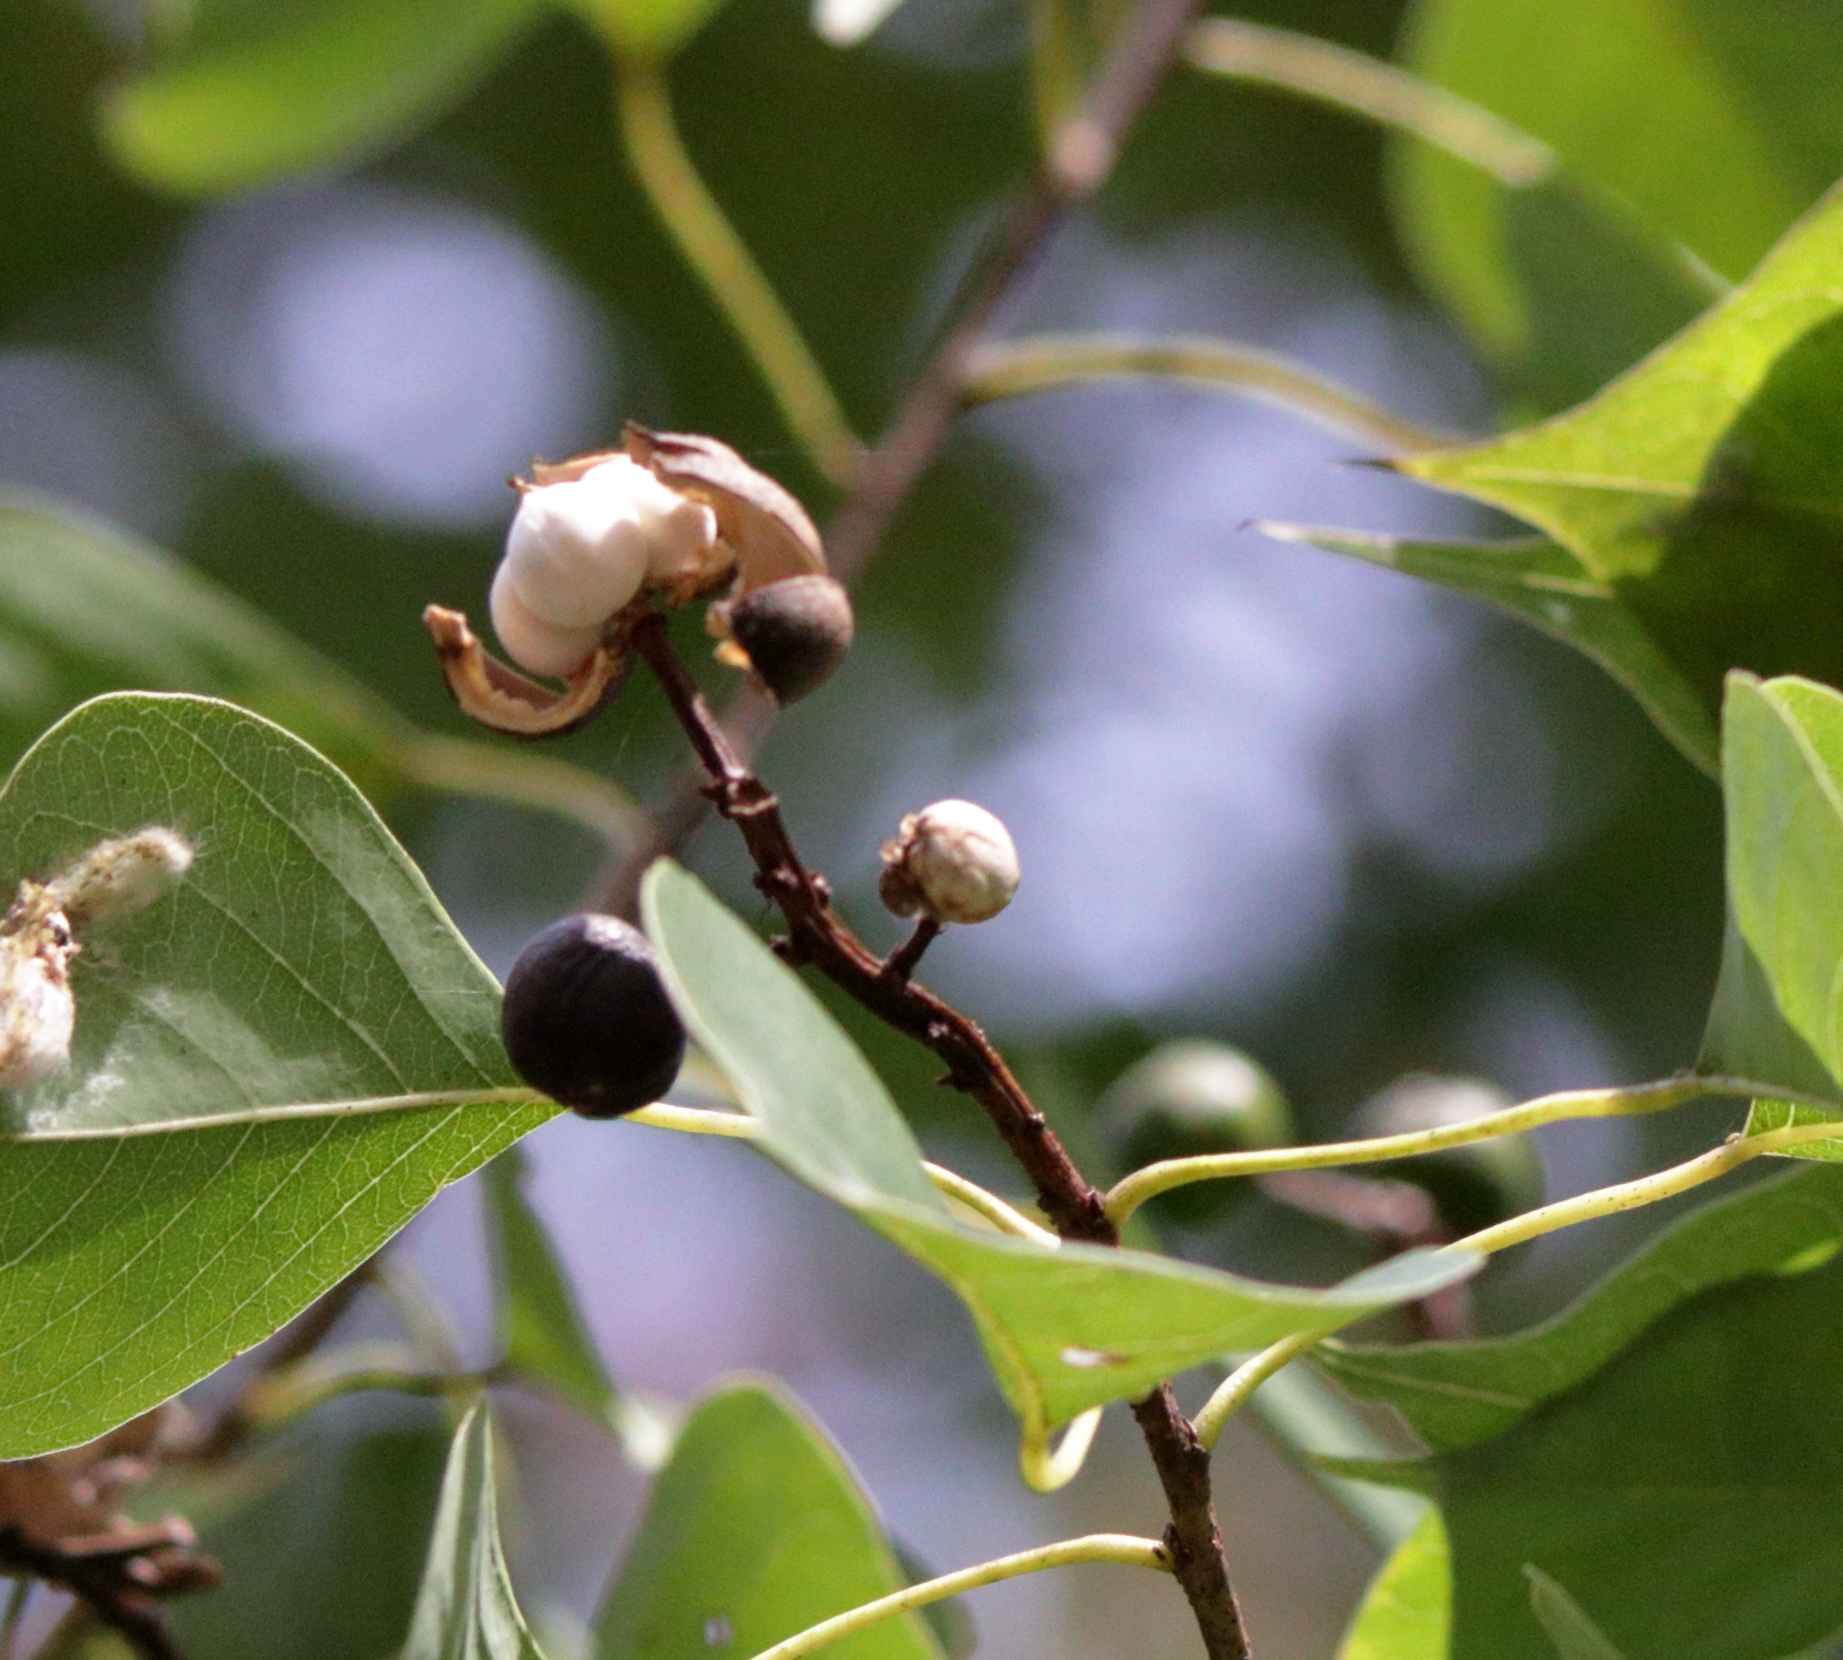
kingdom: Plantae
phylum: Tracheophyta
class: Magnoliopsida
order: Malpighiales
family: Euphorbiaceae
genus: Triadica
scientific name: Triadica sebifera
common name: Chinese tallow
